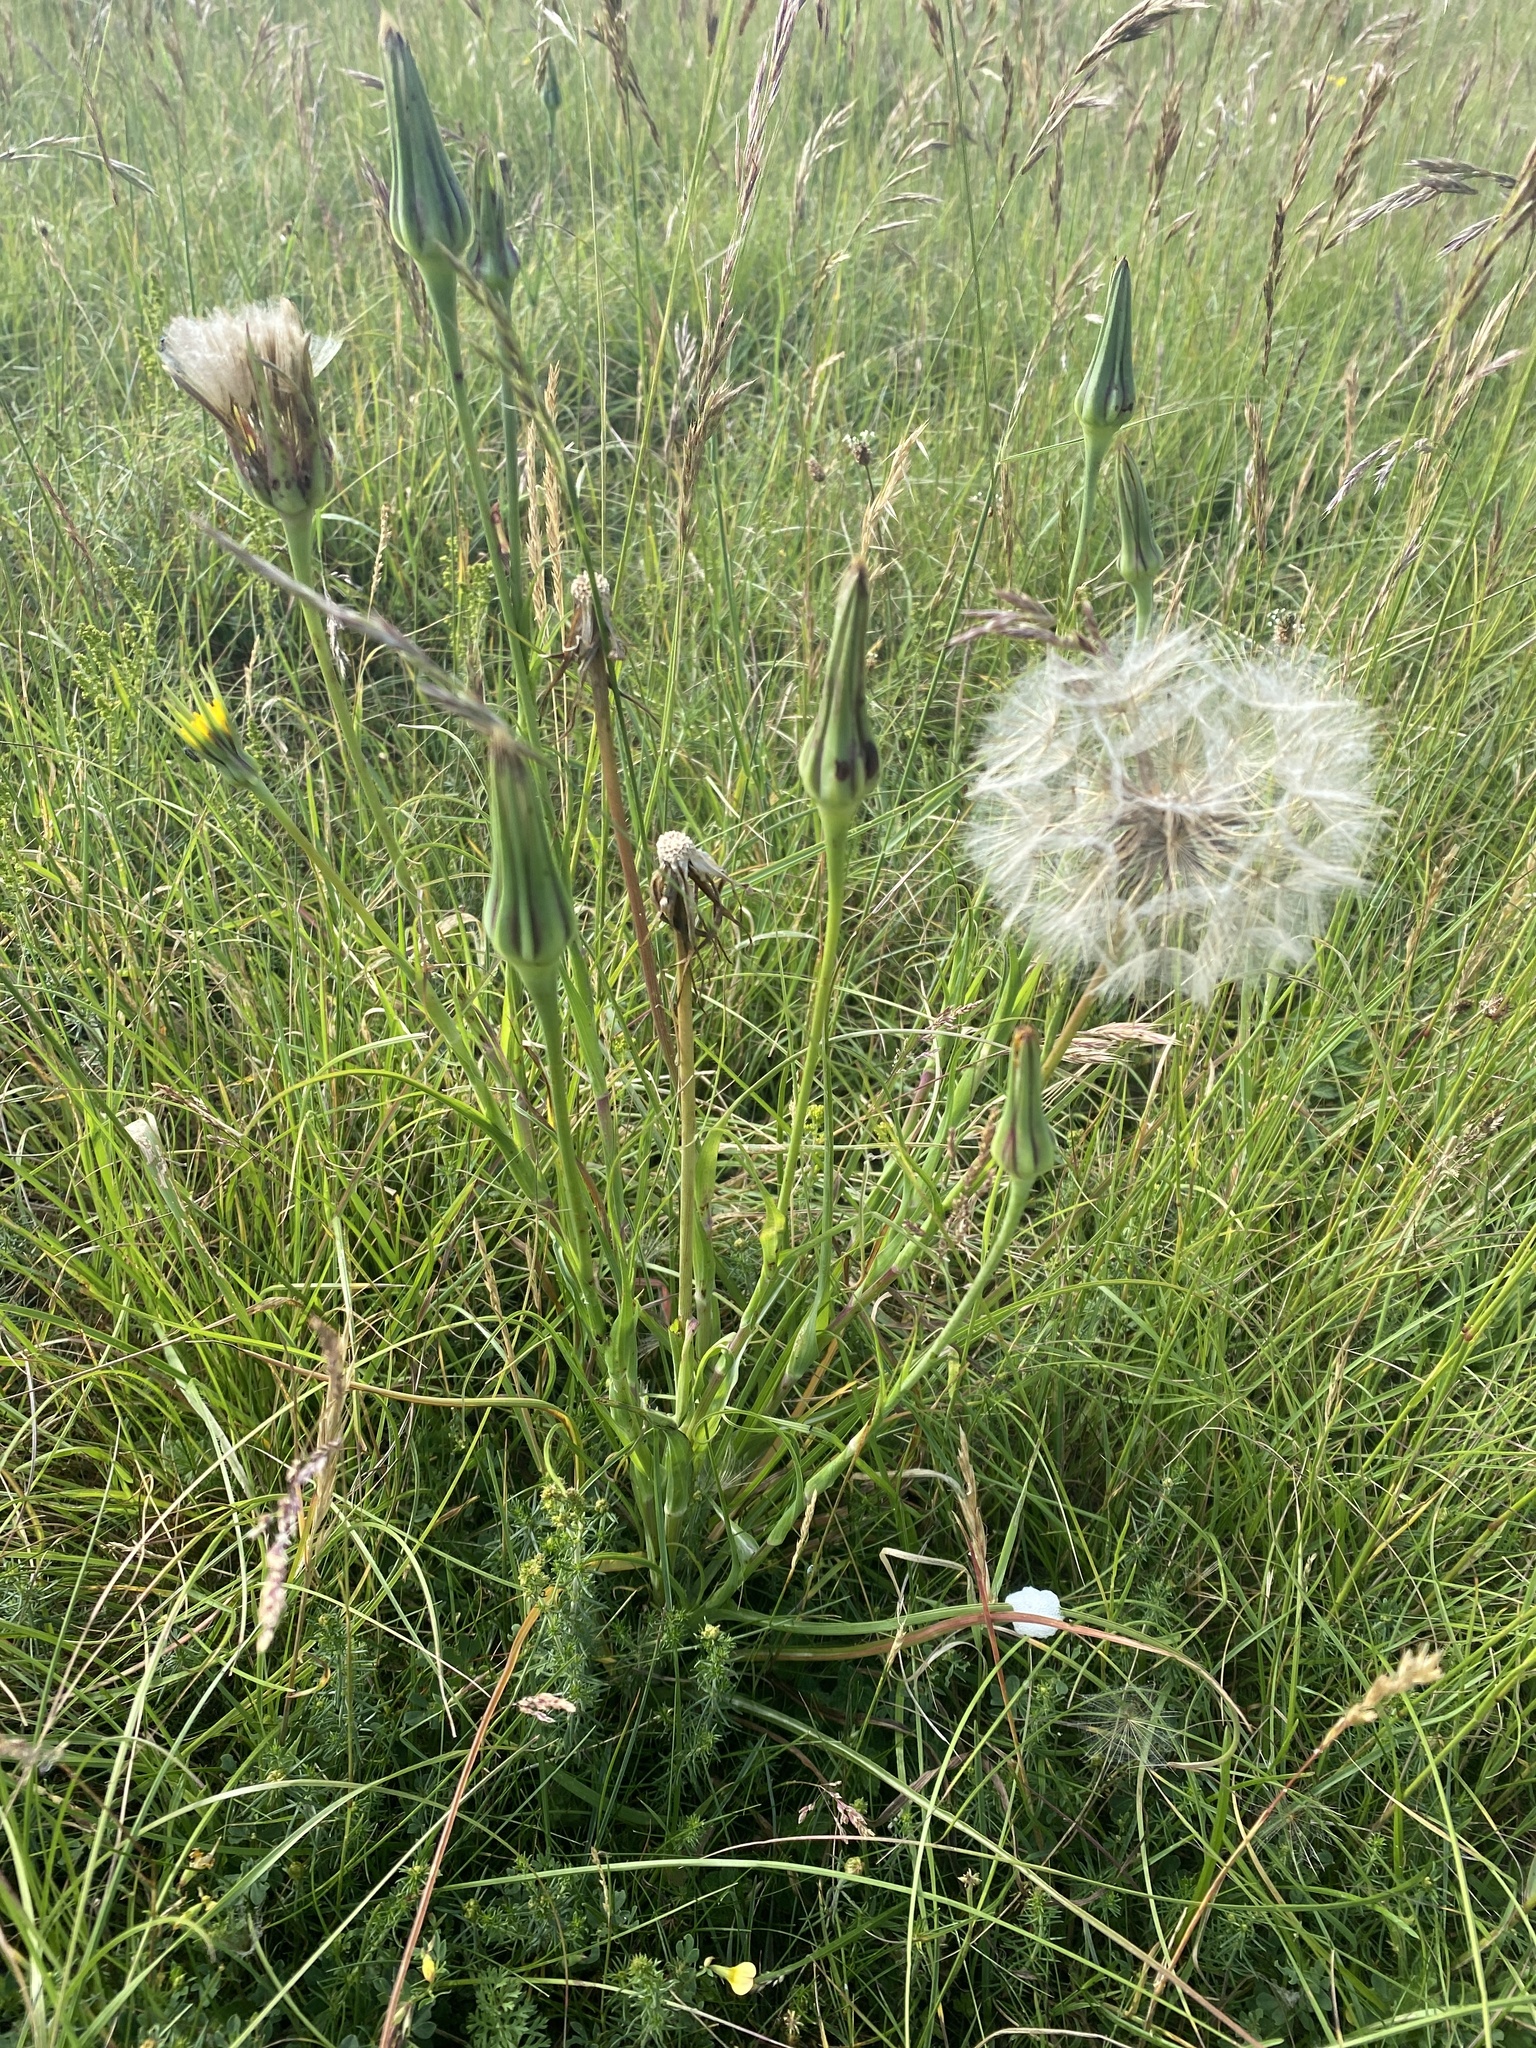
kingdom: Plantae
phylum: Tracheophyta
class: Magnoliopsida
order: Asterales
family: Asteraceae
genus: Tragopogon
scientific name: Tragopogon pratensis
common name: Goat's-beard
